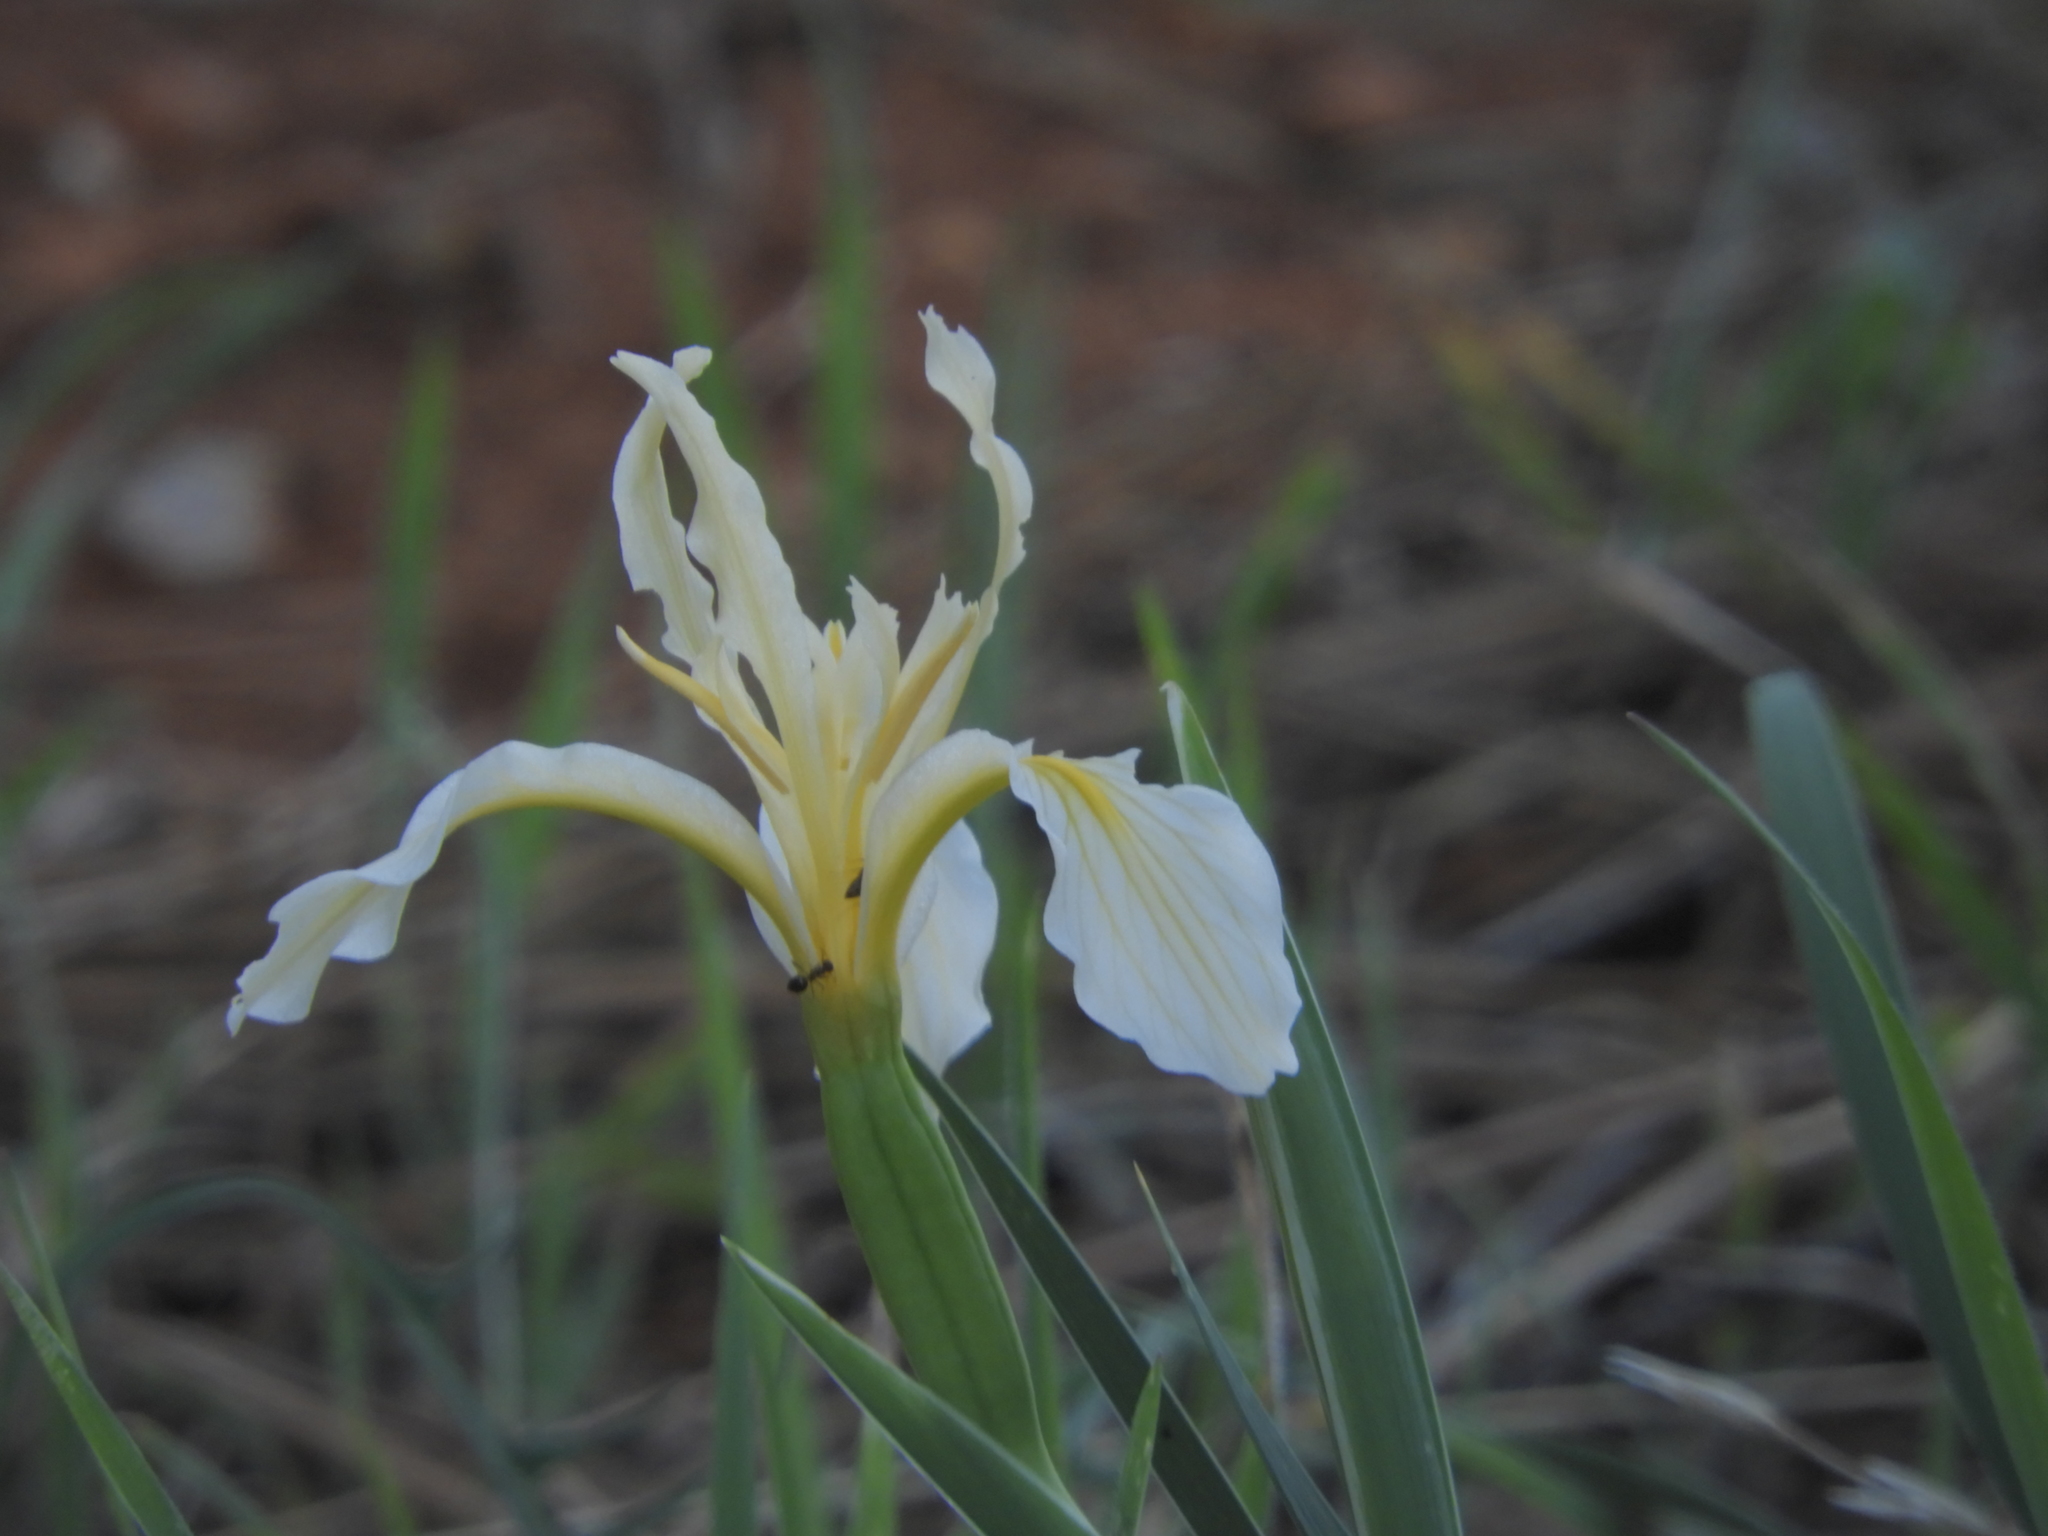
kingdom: Plantae
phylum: Tracheophyta
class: Liliopsida
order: Asparagales
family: Iridaceae
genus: Iris
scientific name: Iris hartwegii
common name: Sierra iris
